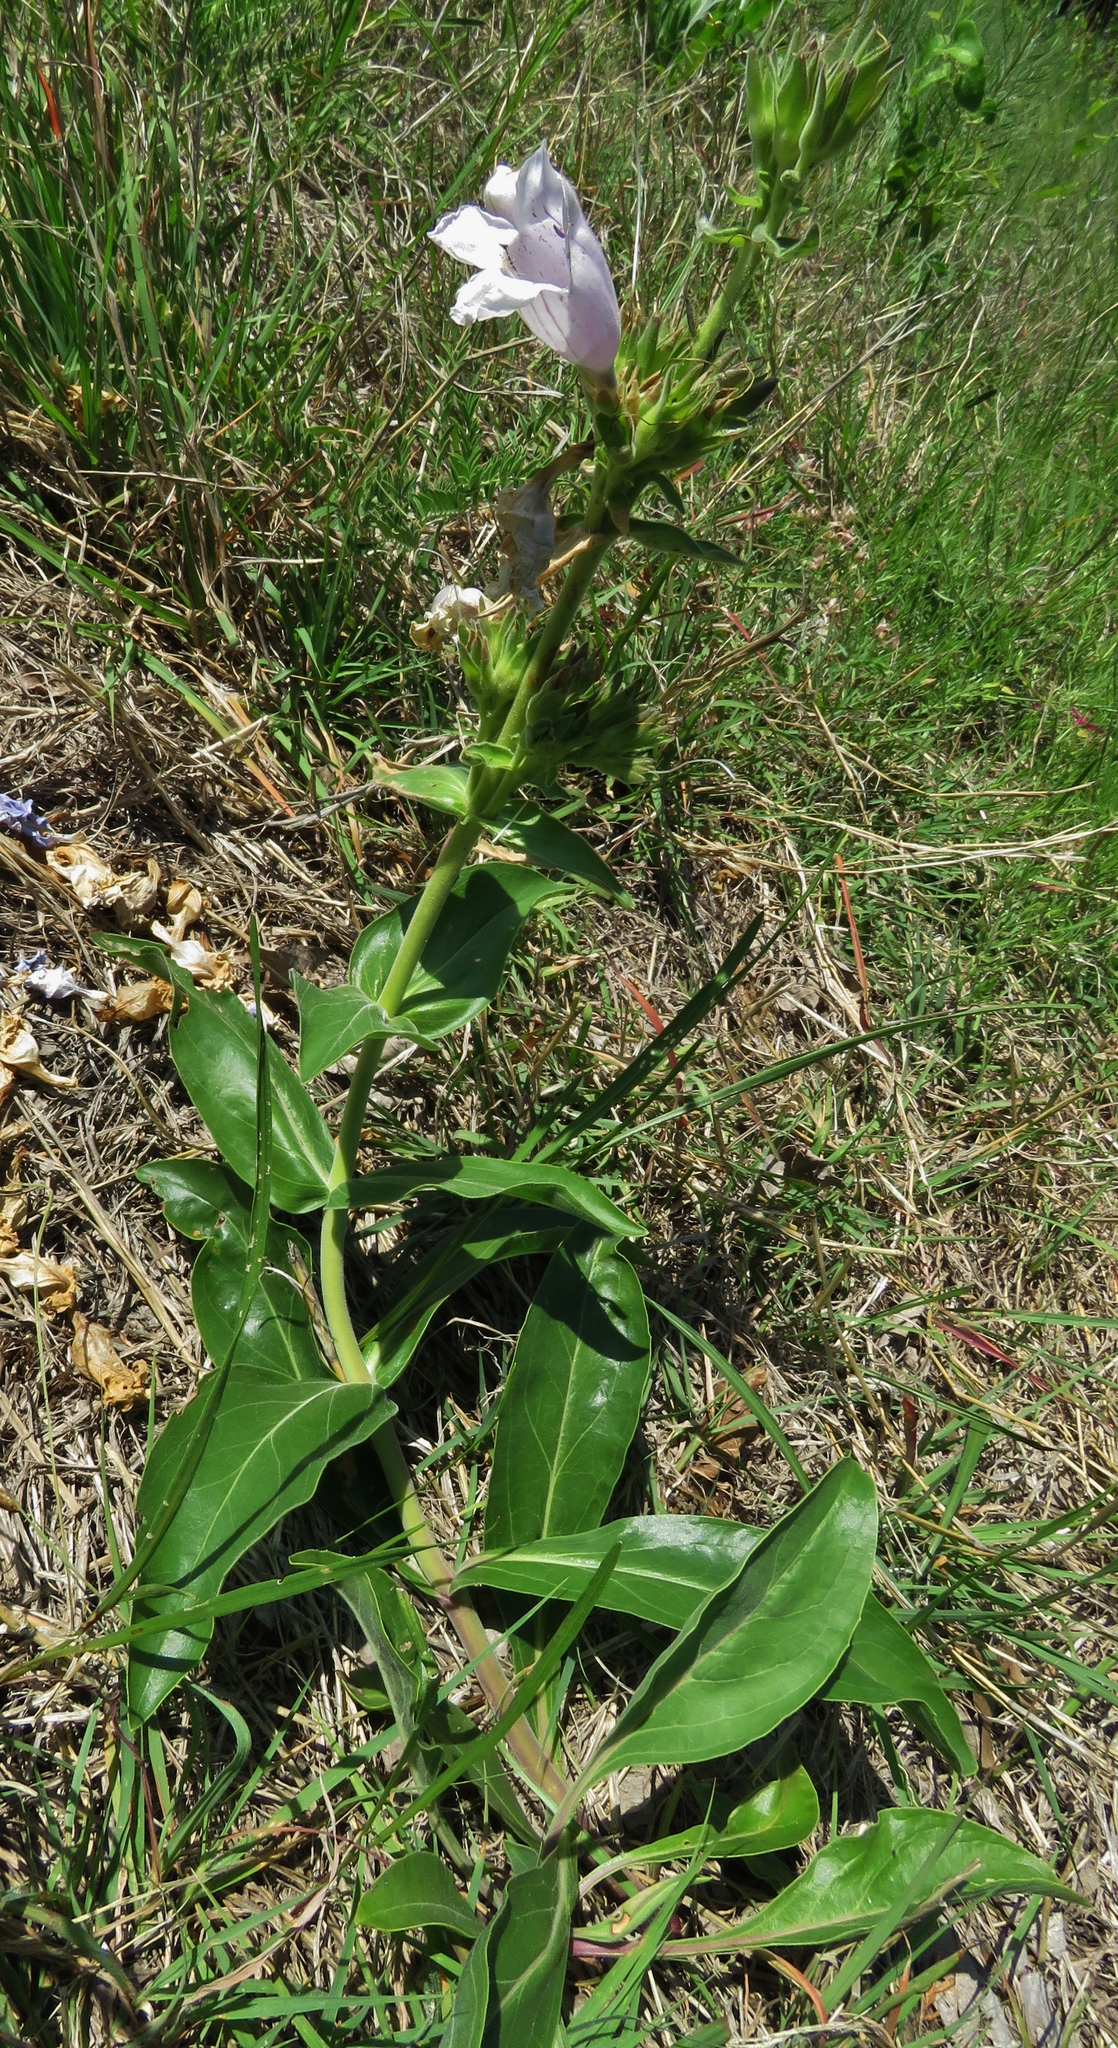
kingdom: Plantae
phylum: Tracheophyta
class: Magnoliopsida
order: Lamiales
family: Plantaginaceae
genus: Penstemon
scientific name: Penstemon cobaea
